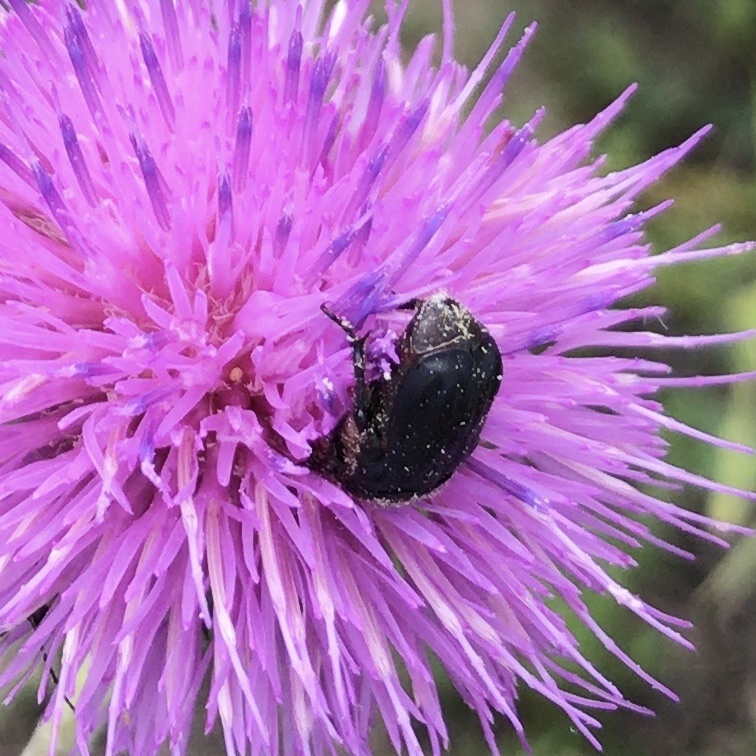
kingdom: Animalia
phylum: Arthropoda
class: Insecta
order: Coleoptera
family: Scarabaeidae
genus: Euphoria
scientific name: Euphoria kernii
